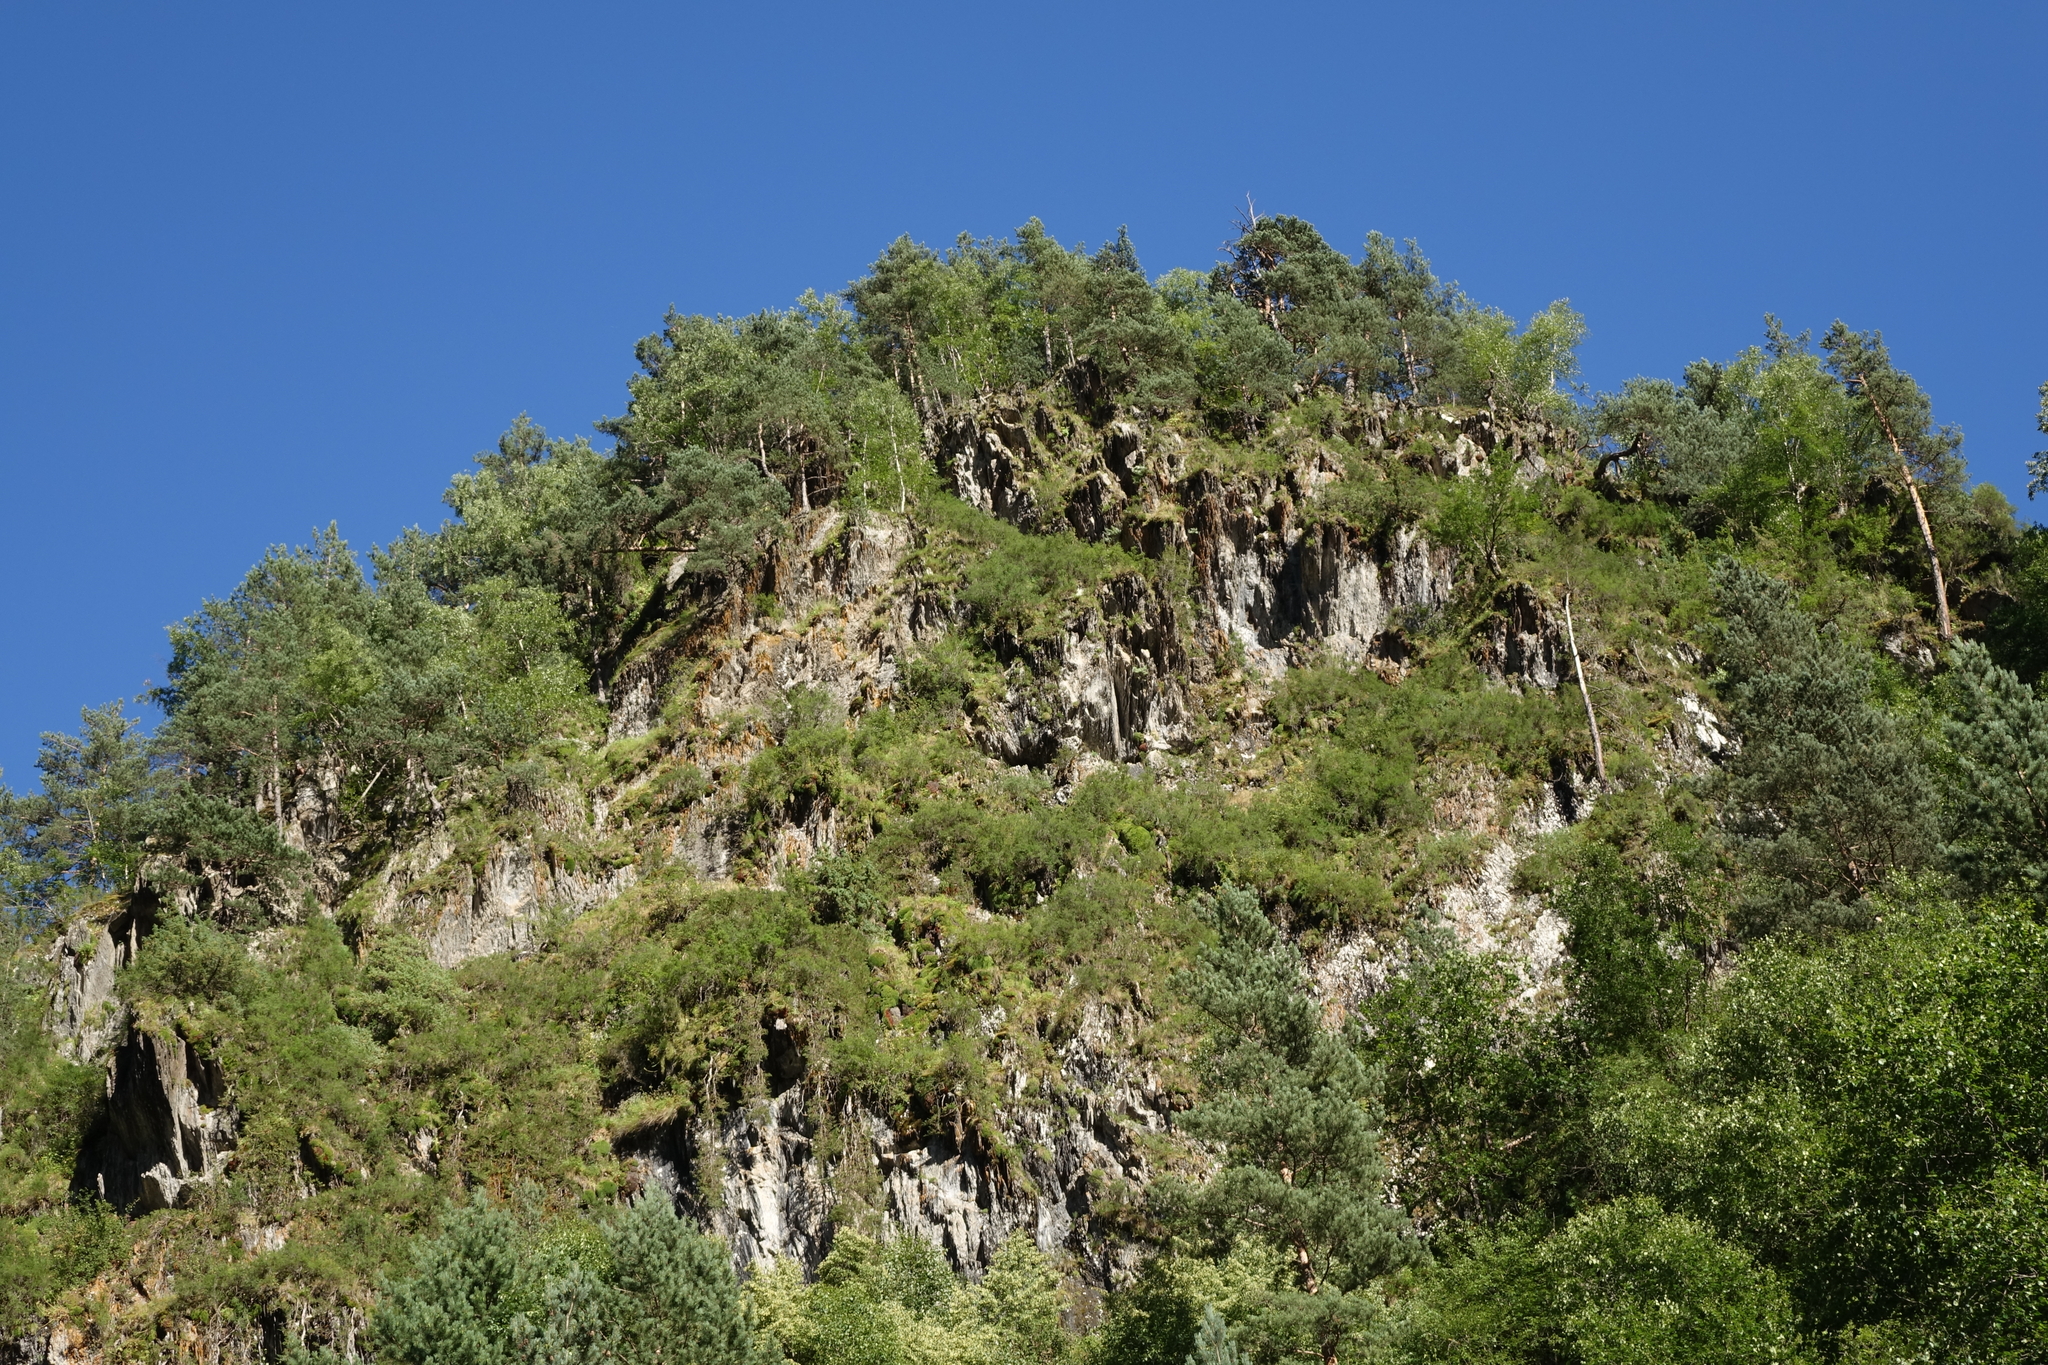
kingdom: Plantae
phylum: Tracheophyta
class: Pinopsida
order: Pinales
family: Pinaceae
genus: Pinus
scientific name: Pinus sylvestris
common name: Scots pine
